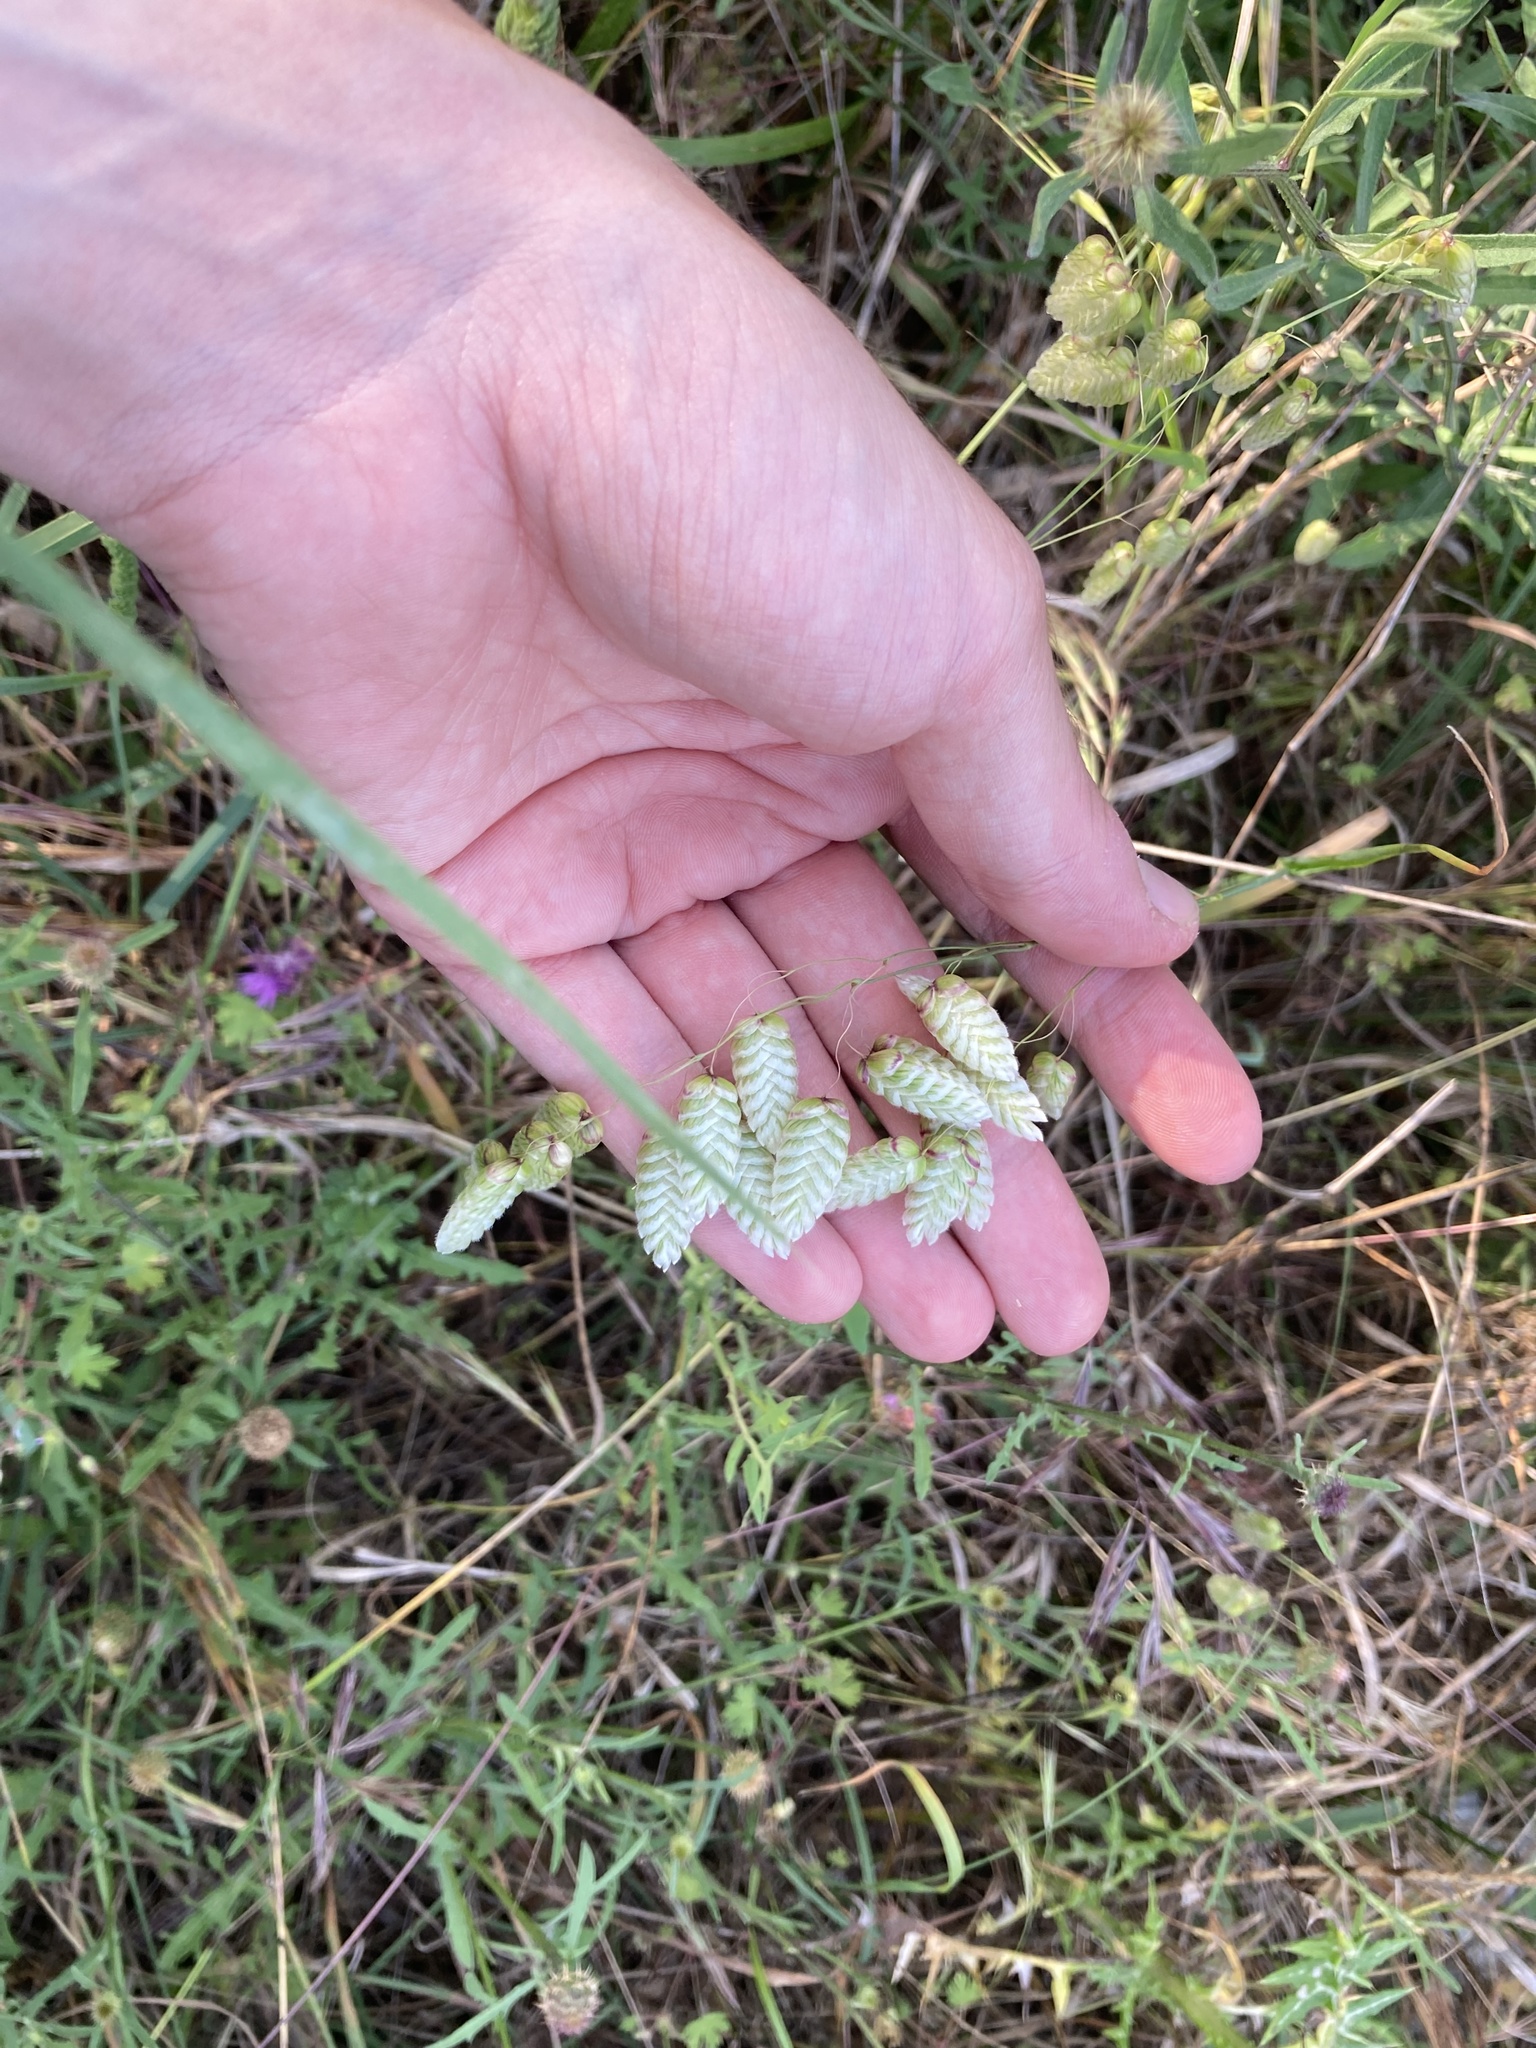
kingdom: Plantae
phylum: Tracheophyta
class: Liliopsida
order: Poales
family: Poaceae
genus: Briza
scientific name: Briza maxima
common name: Big quakinggrass
